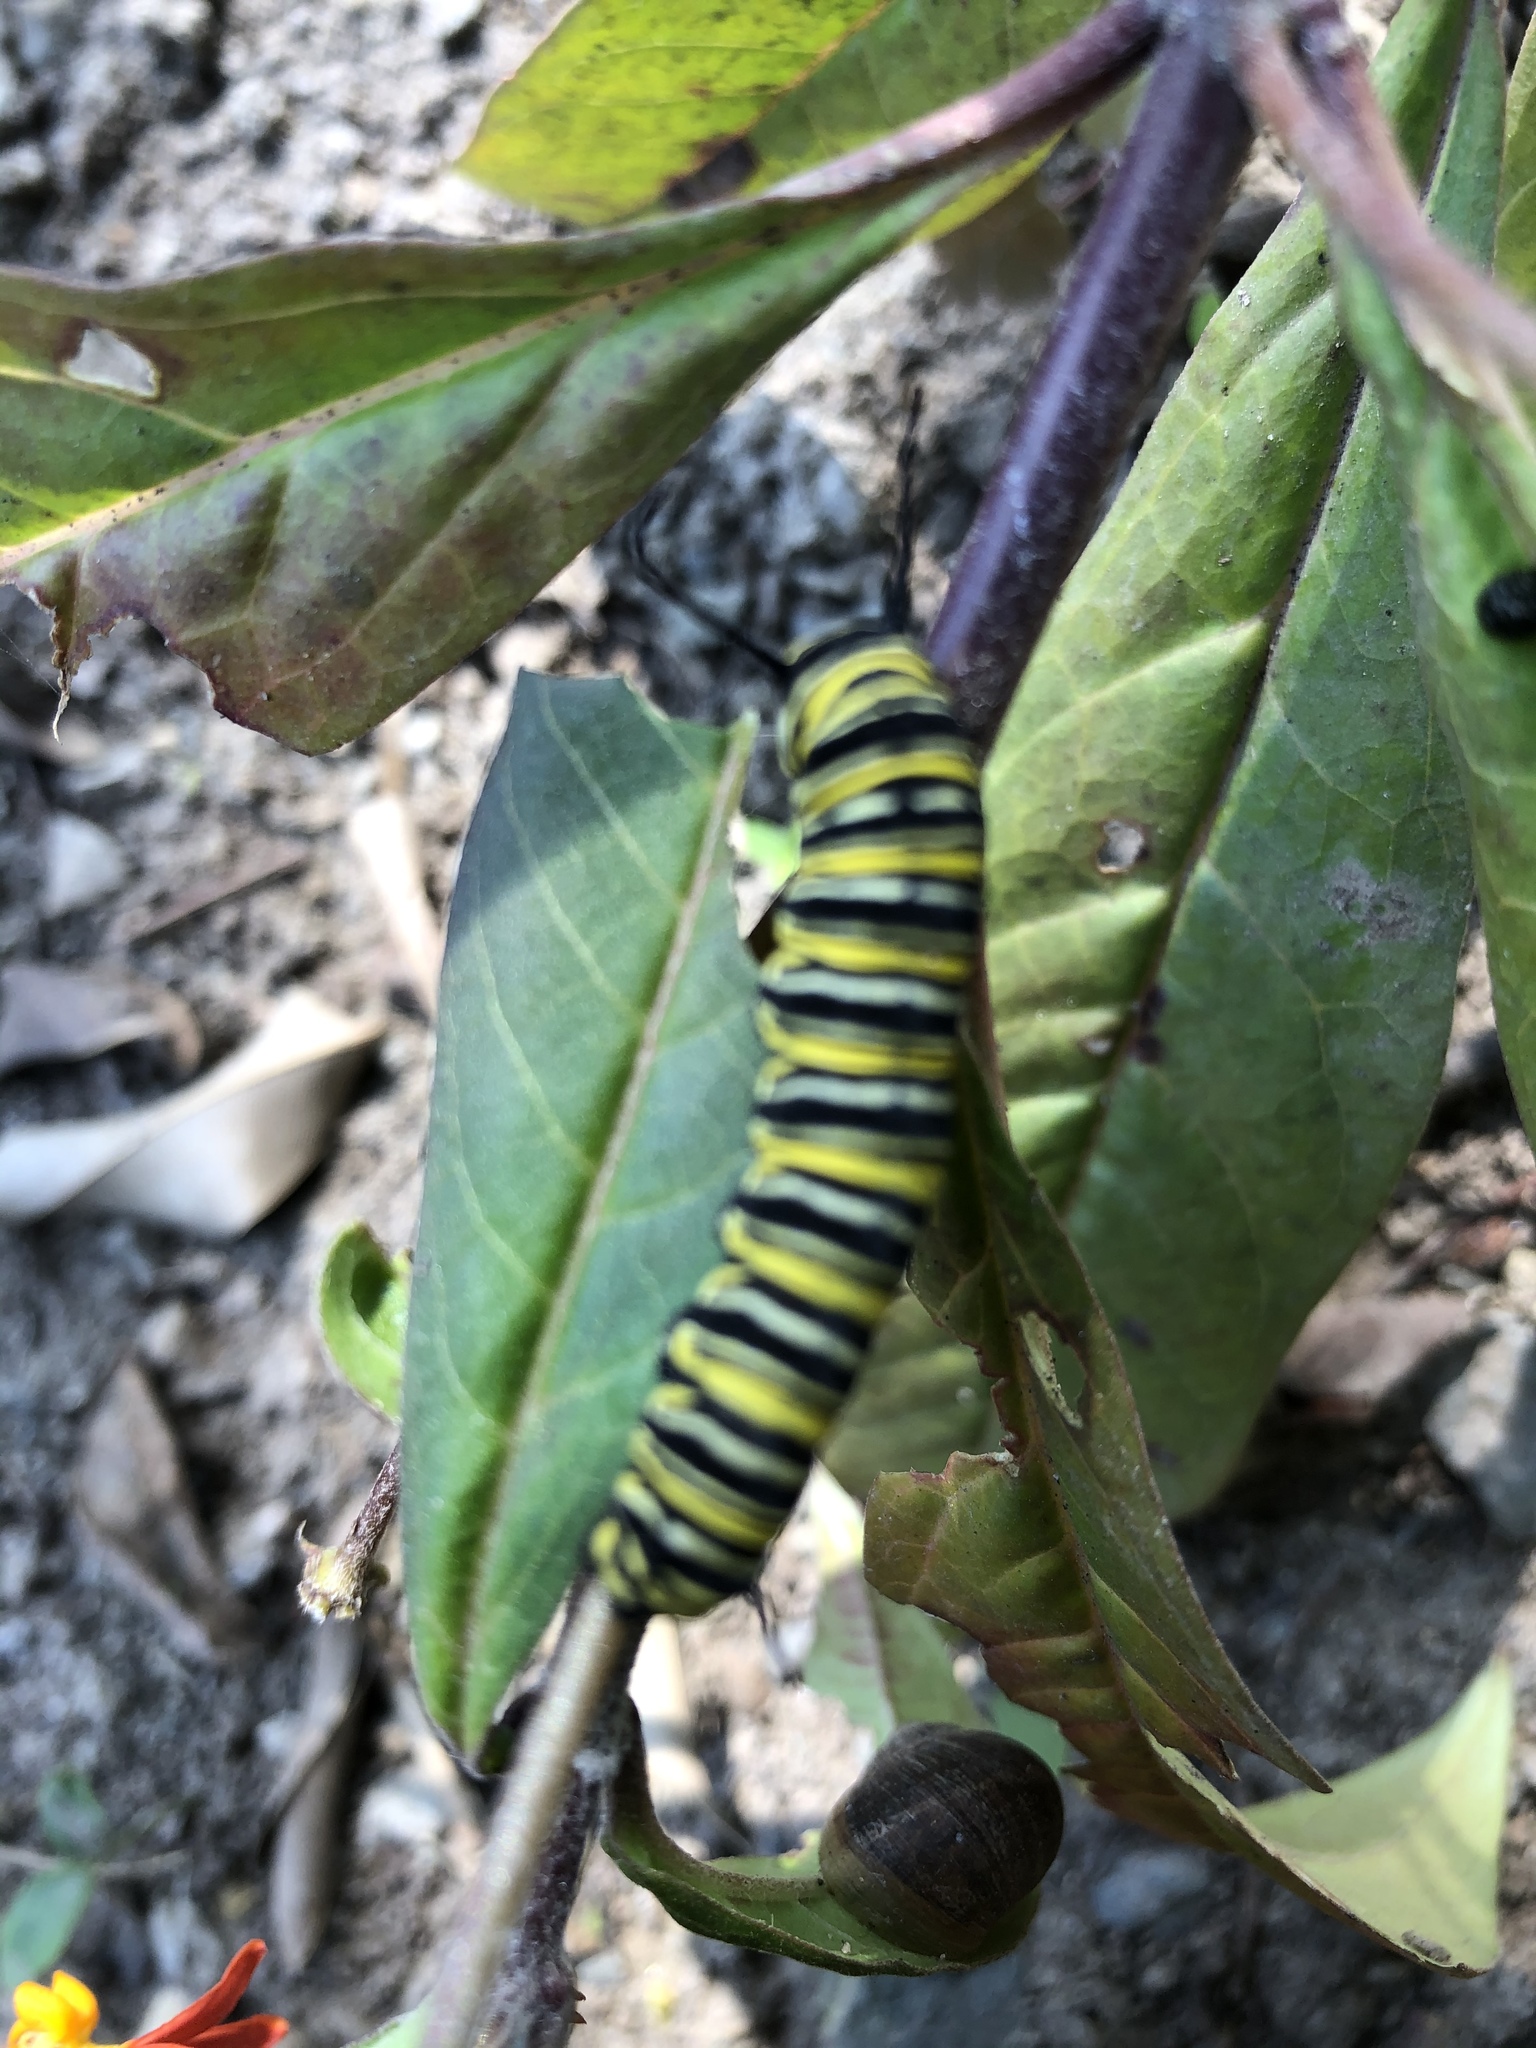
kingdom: Animalia
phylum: Arthropoda
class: Insecta
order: Lepidoptera
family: Nymphalidae
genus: Danaus
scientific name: Danaus plexippus
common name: Monarch
